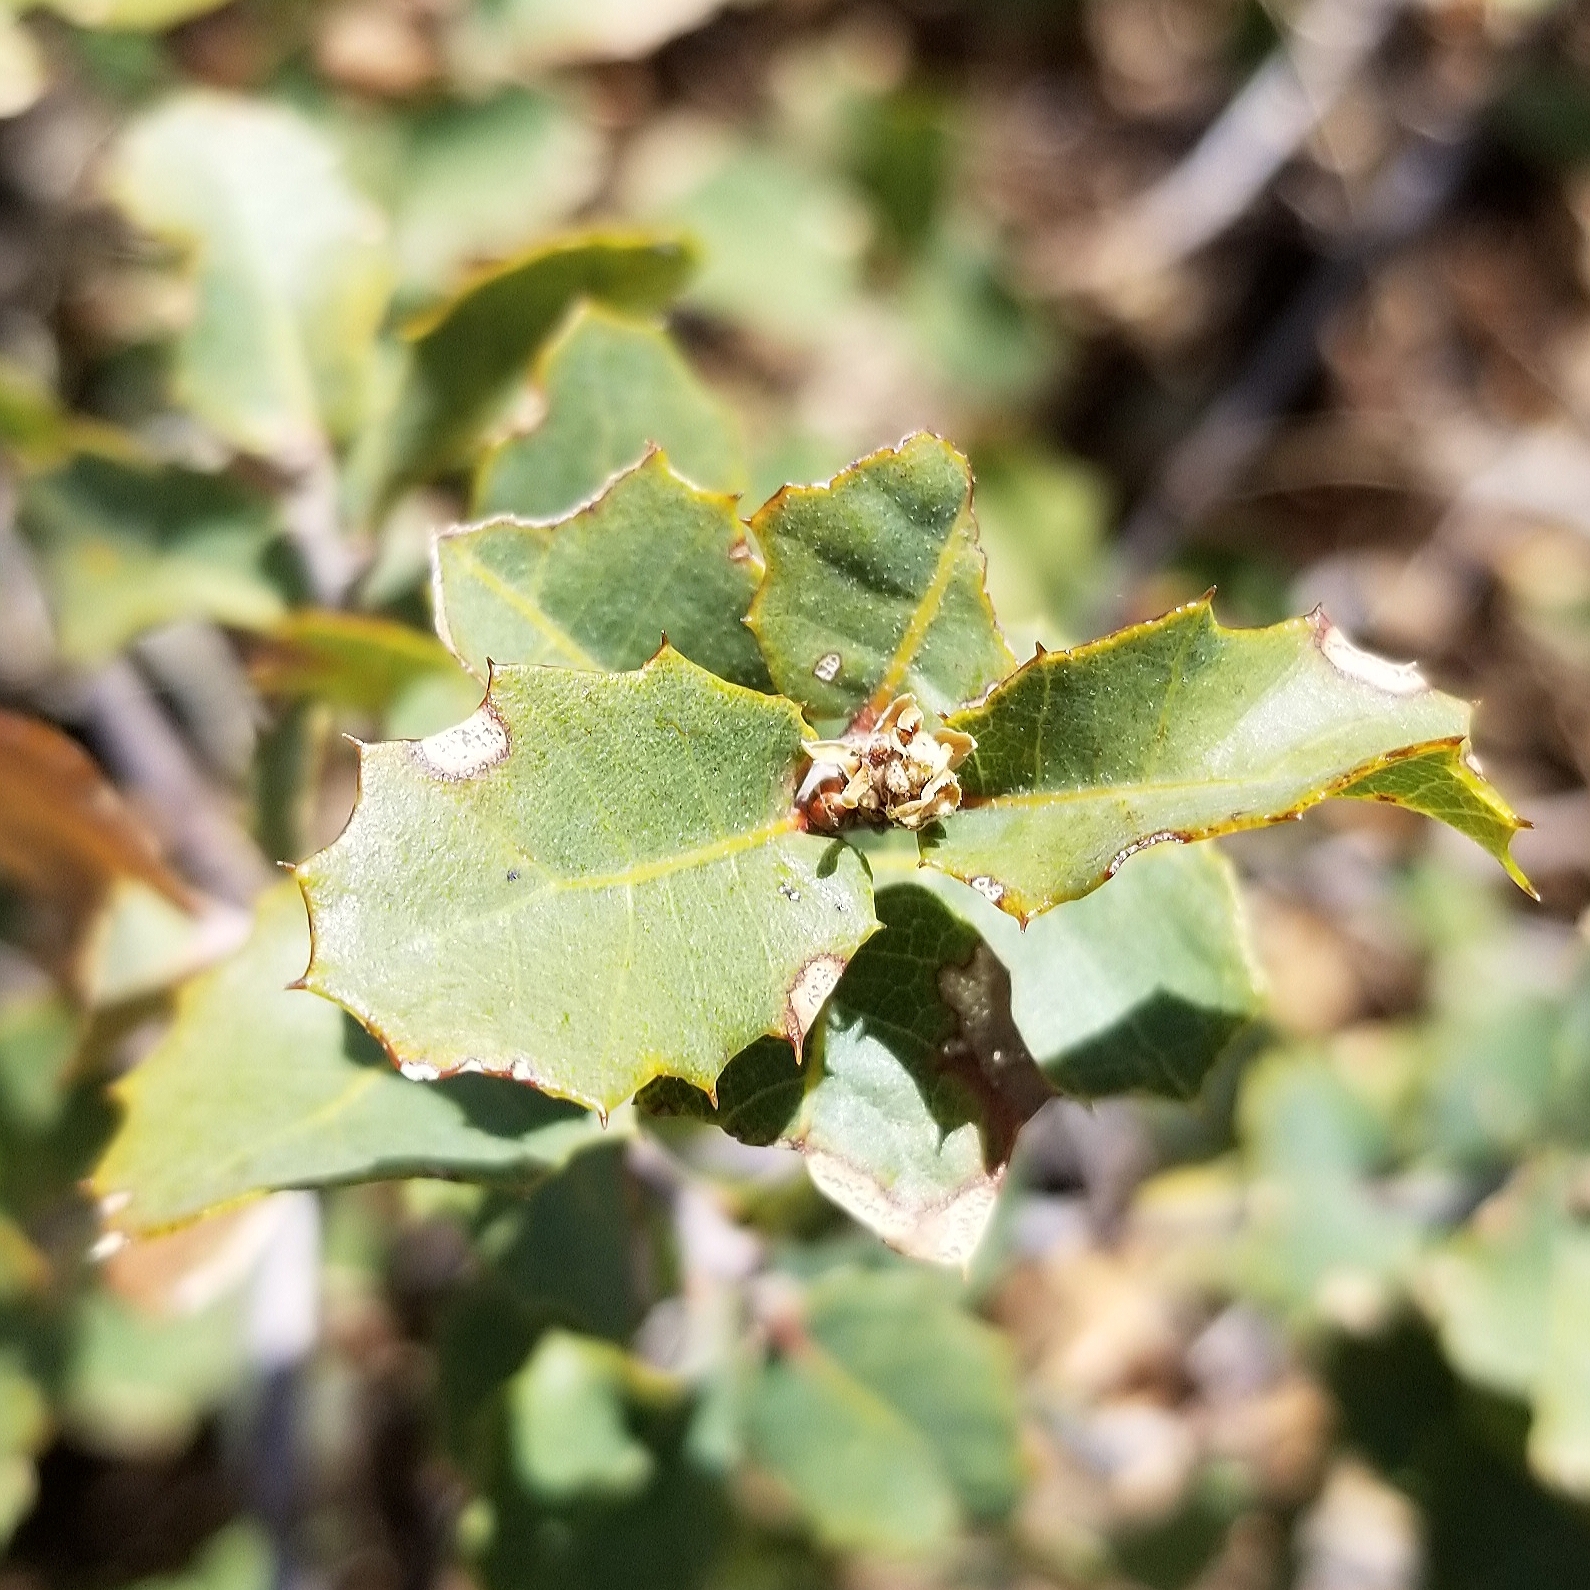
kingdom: Plantae
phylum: Tracheophyta
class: Magnoliopsida
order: Fagales
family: Fagaceae
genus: Quercus
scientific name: Quercus turbinella
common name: Sonoran scrub oak
